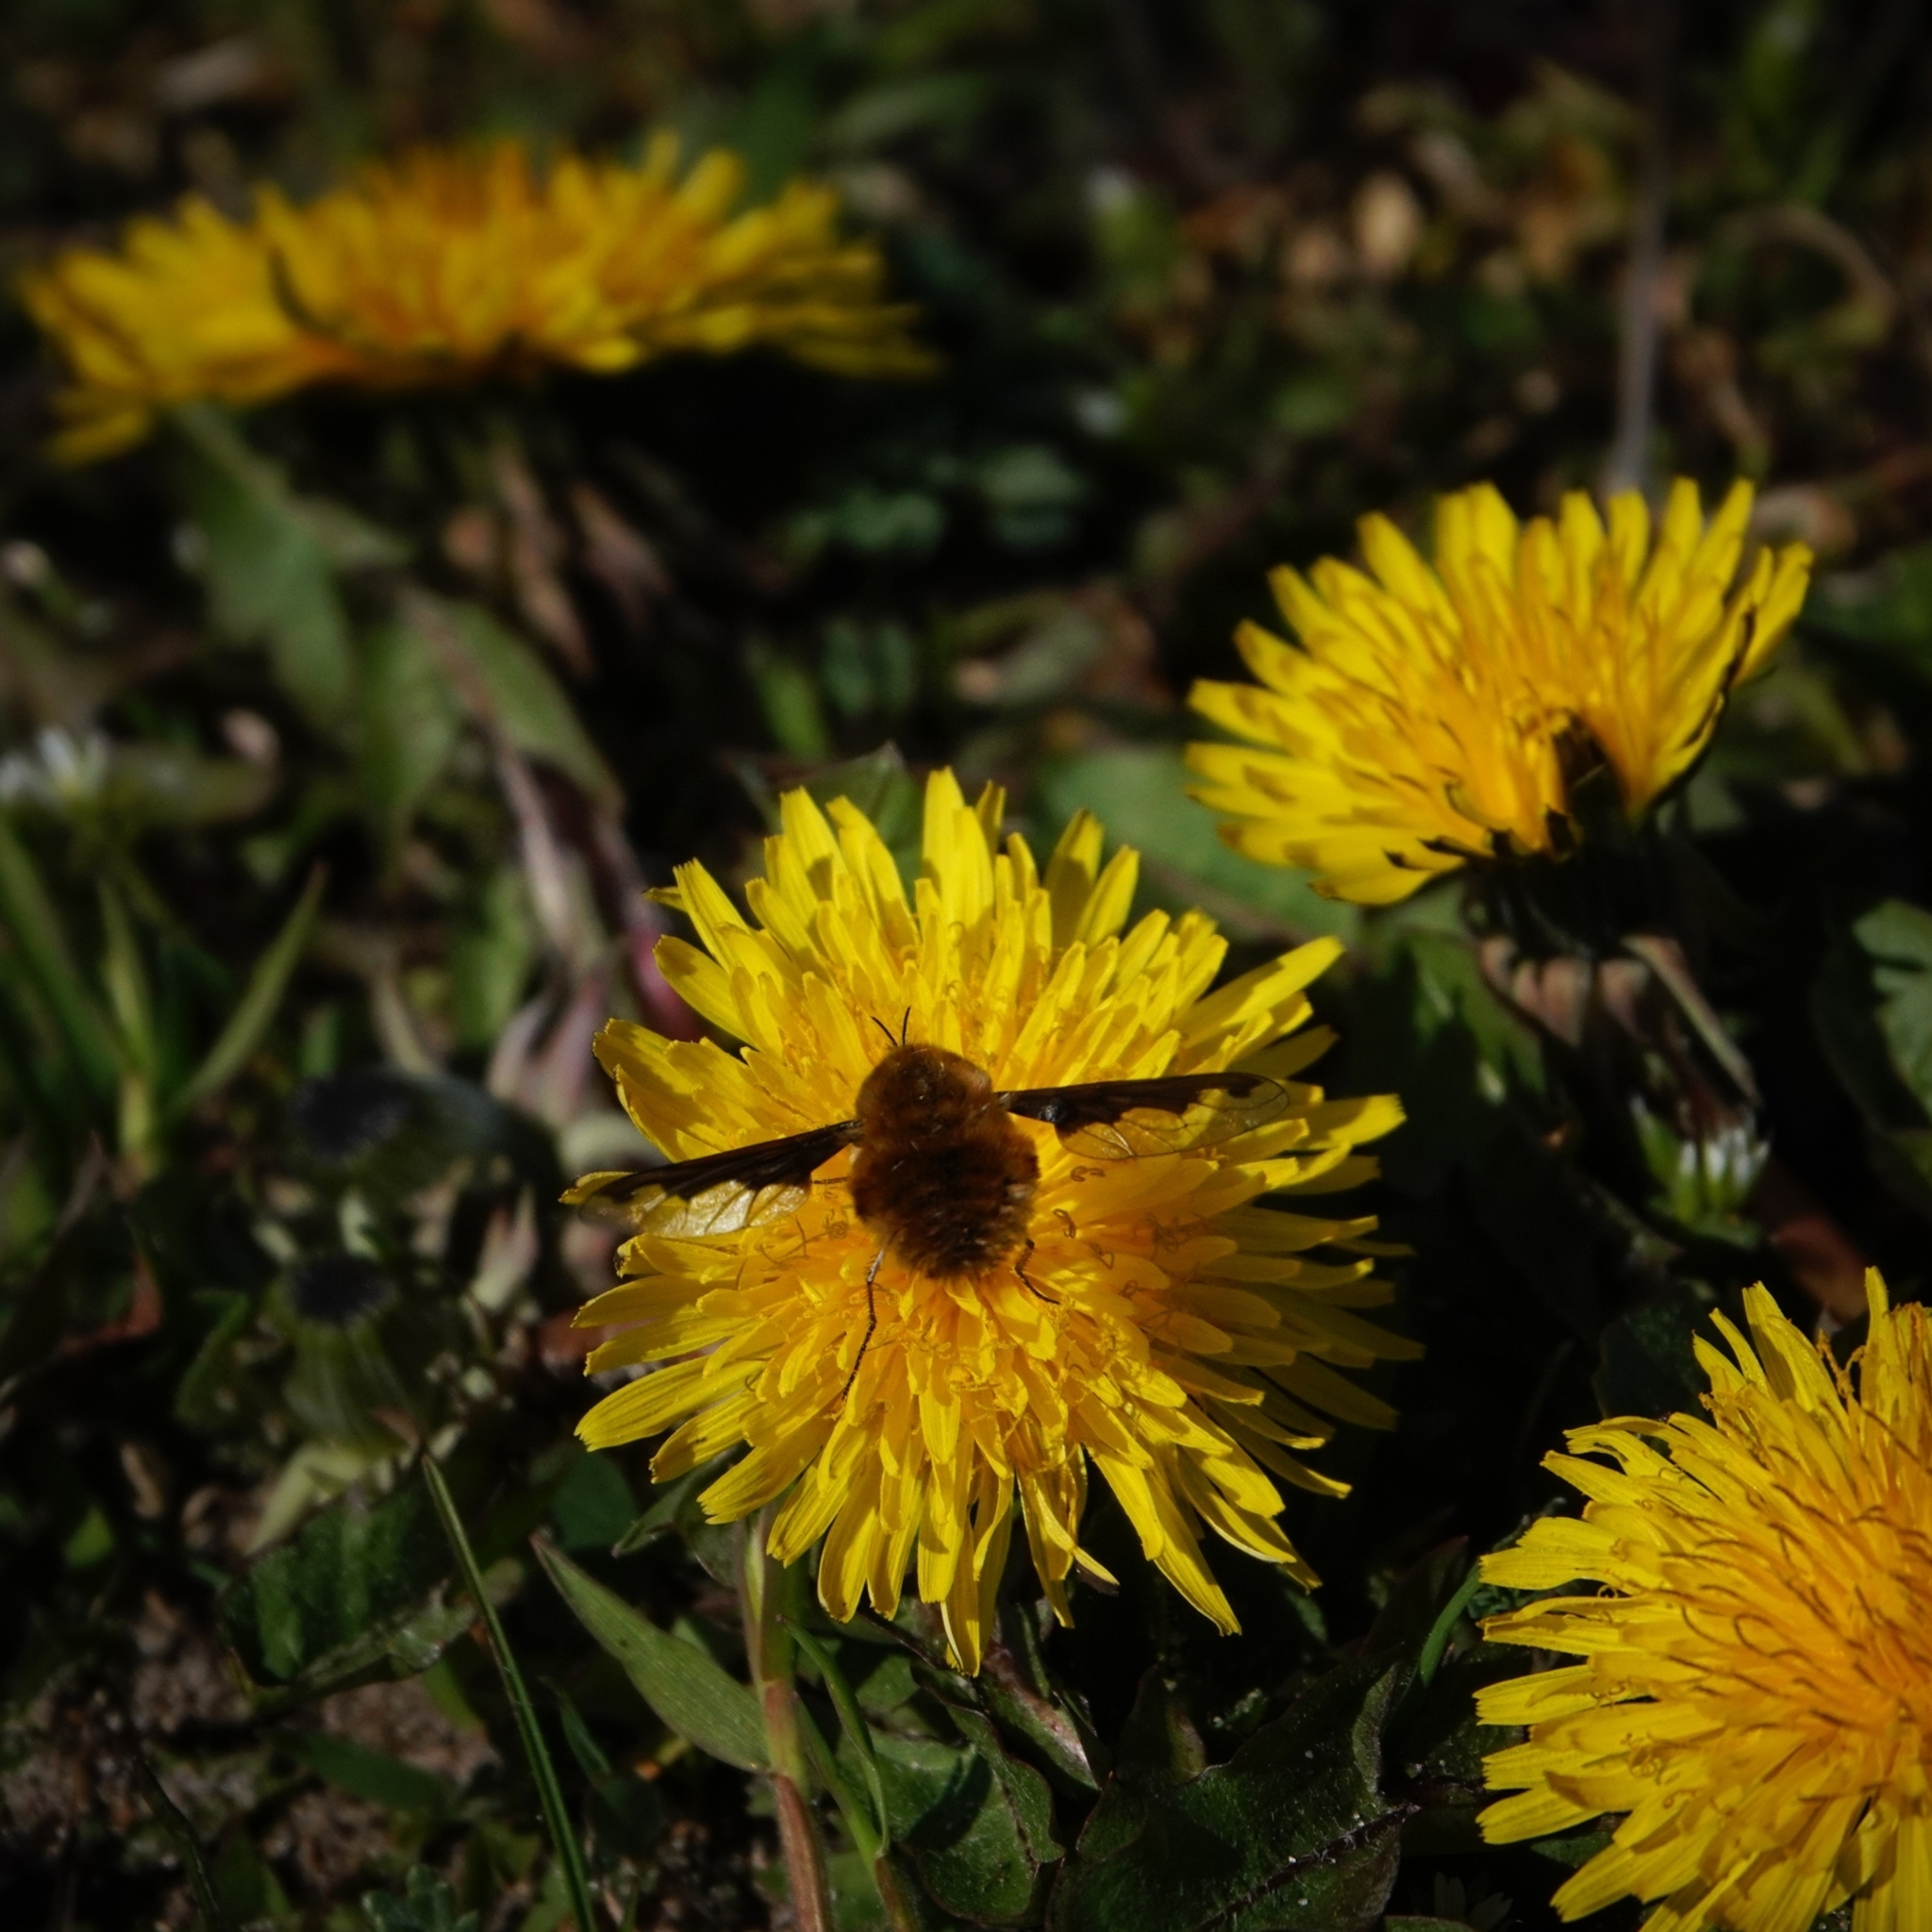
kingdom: Animalia
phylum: Arthropoda
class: Insecta
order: Diptera
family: Bombyliidae
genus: Bombylius
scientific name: Bombylius major
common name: Bee fly
